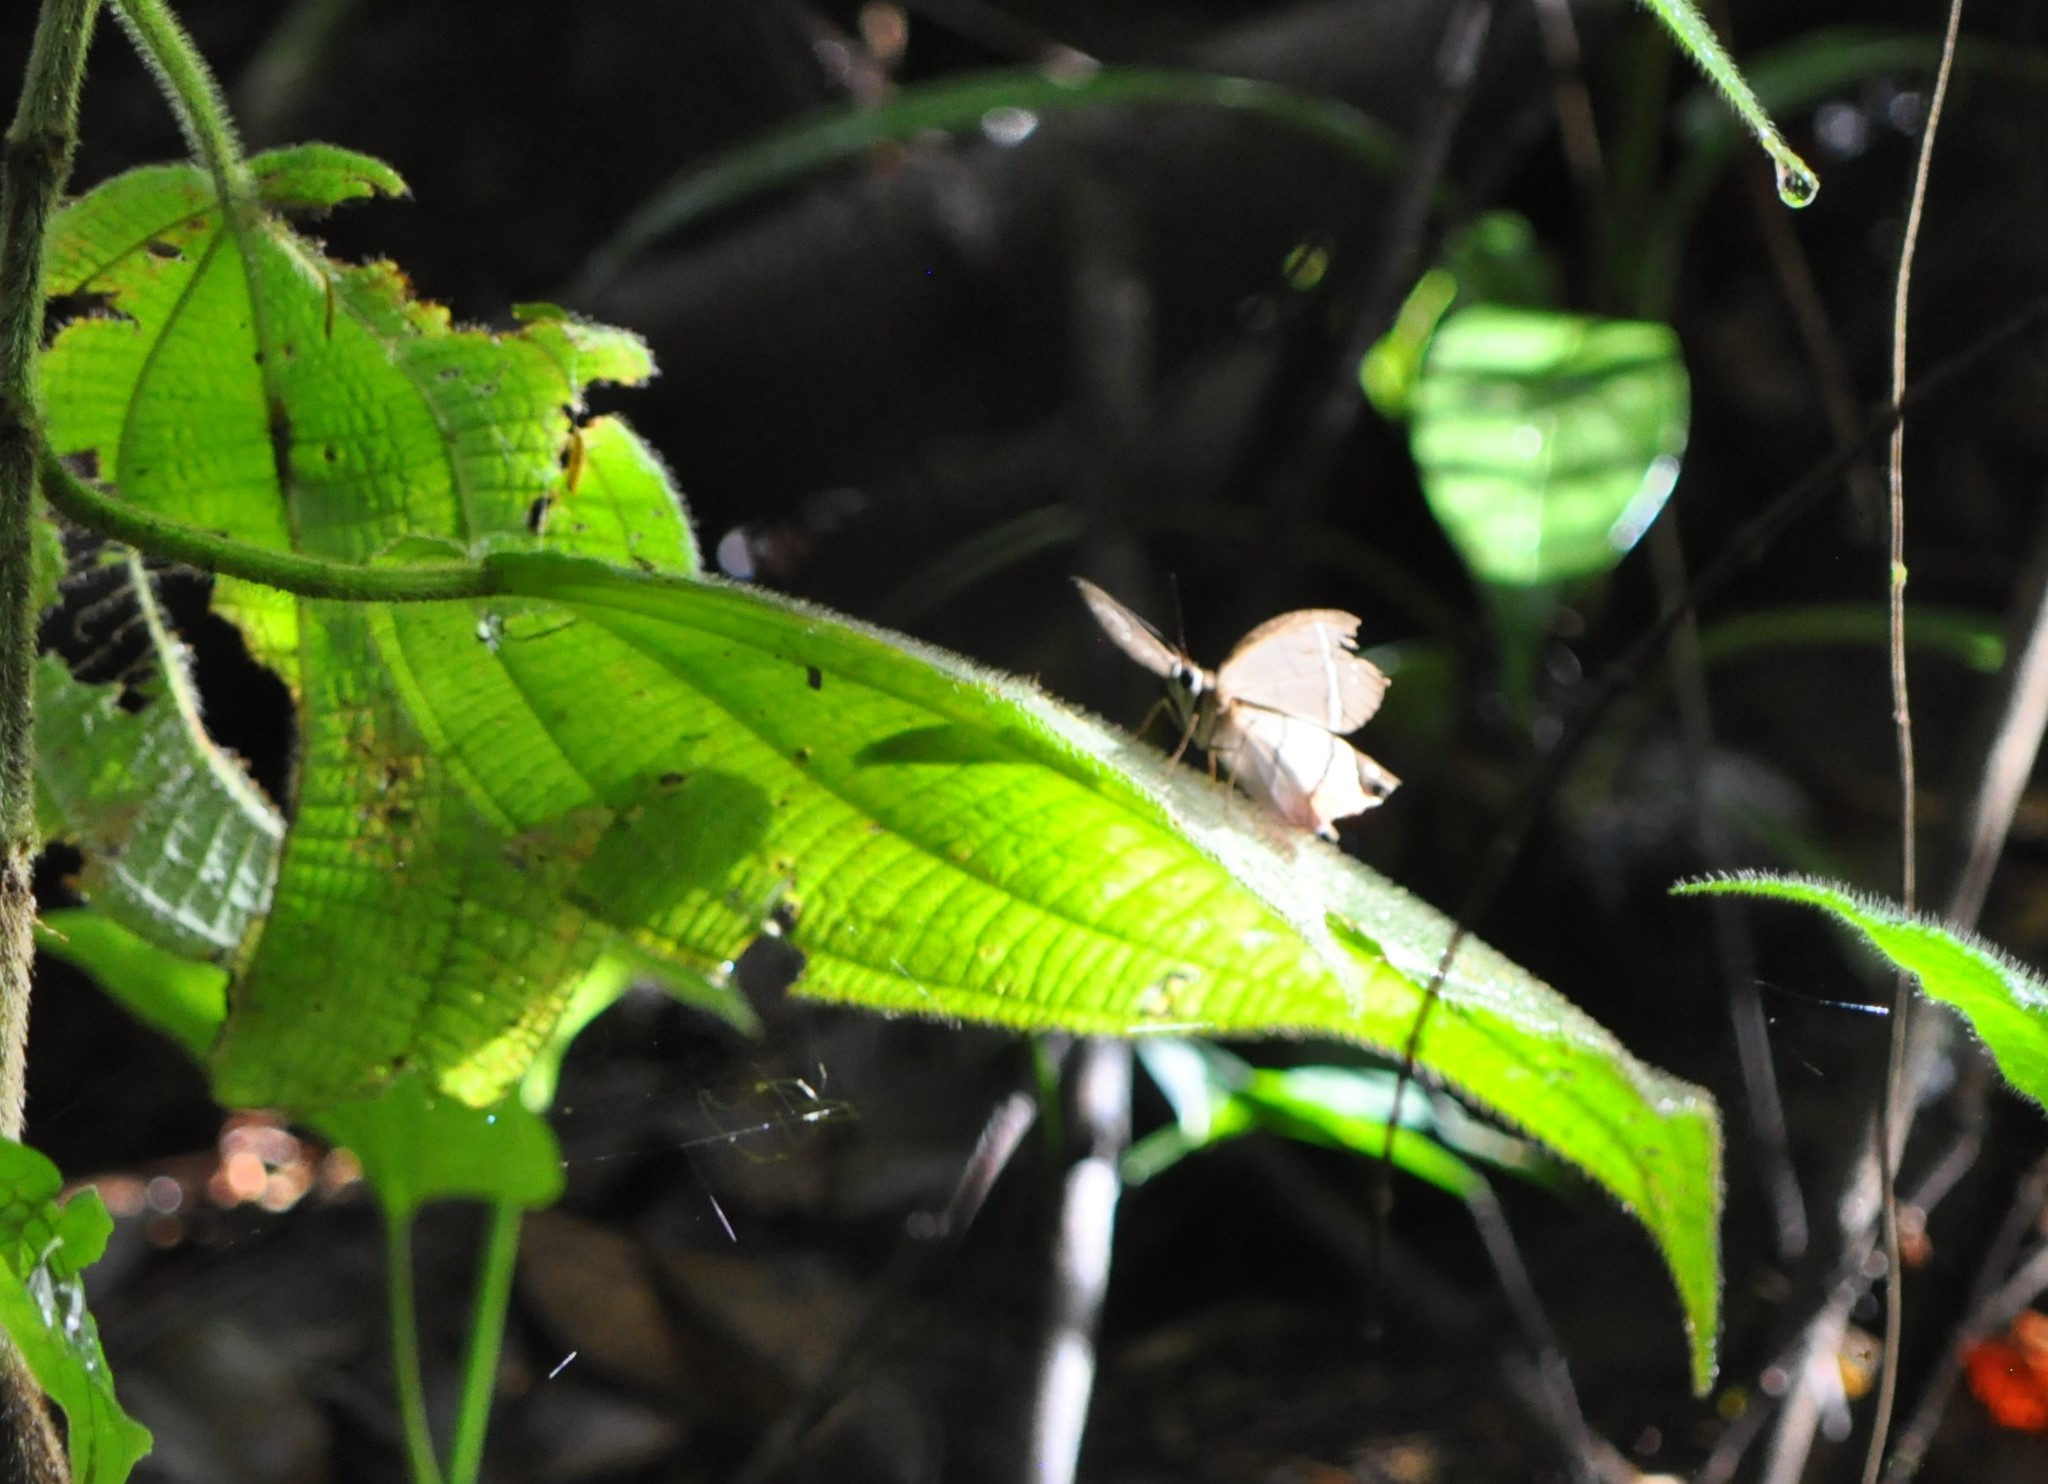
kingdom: Animalia
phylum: Arthropoda
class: Insecta
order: Lepidoptera
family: Nymphalidae
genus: Pierella
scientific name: Pierella helvina
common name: Red-washed satyr
